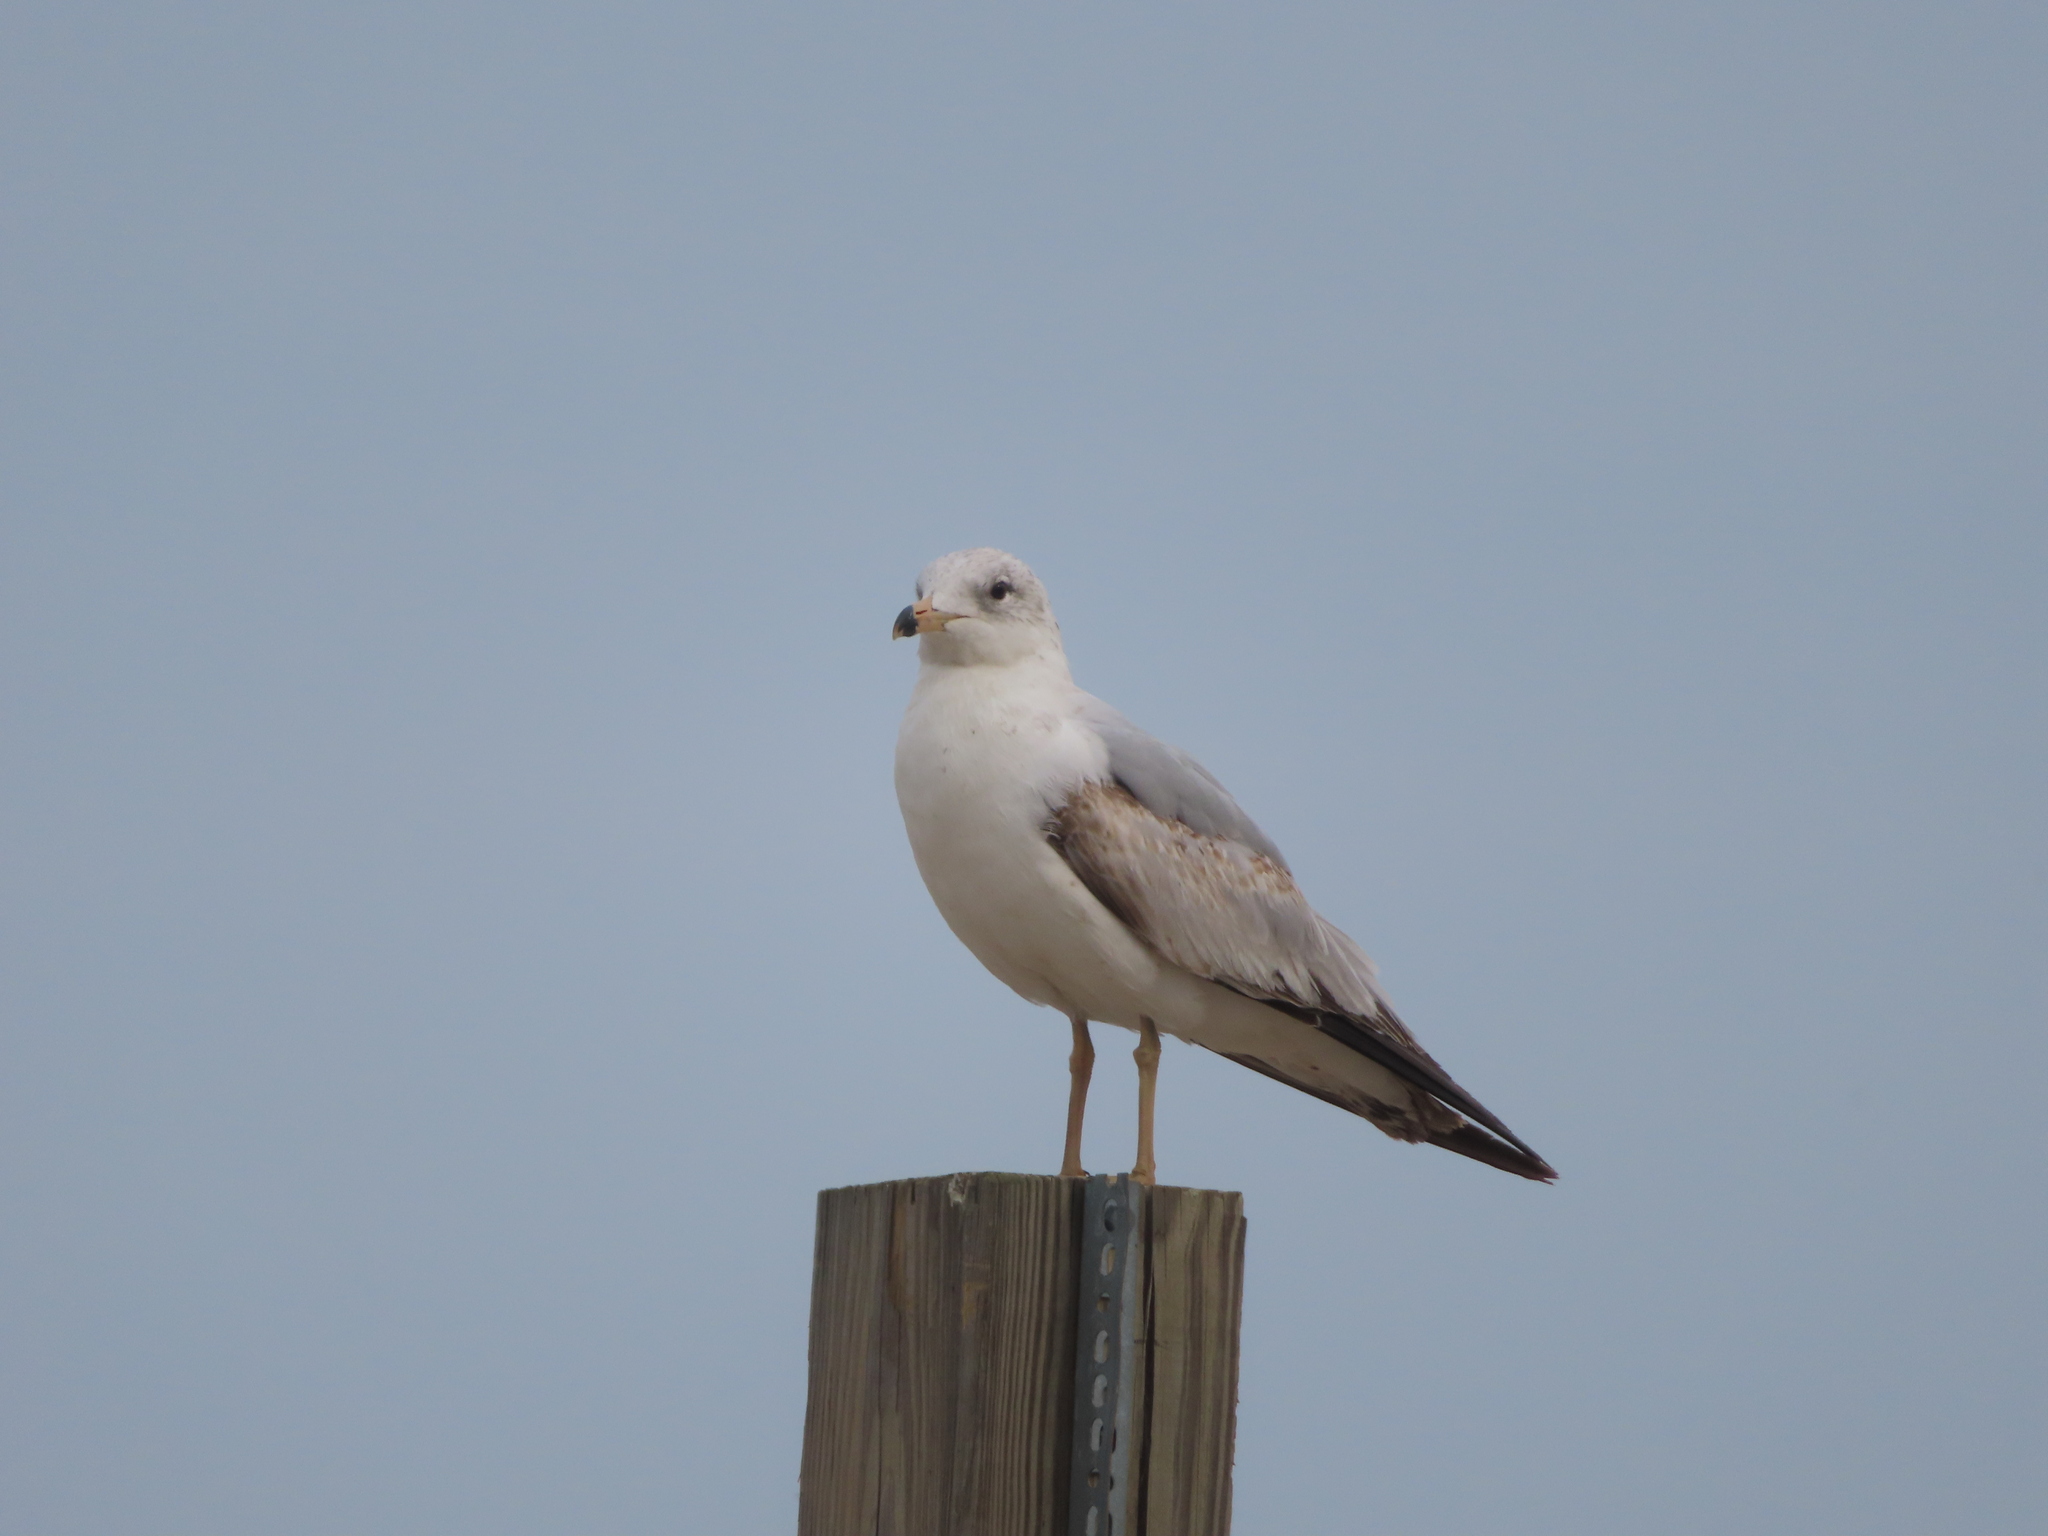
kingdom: Animalia
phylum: Chordata
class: Aves
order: Charadriiformes
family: Laridae
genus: Larus
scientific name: Larus delawarensis
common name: Ring-billed gull
